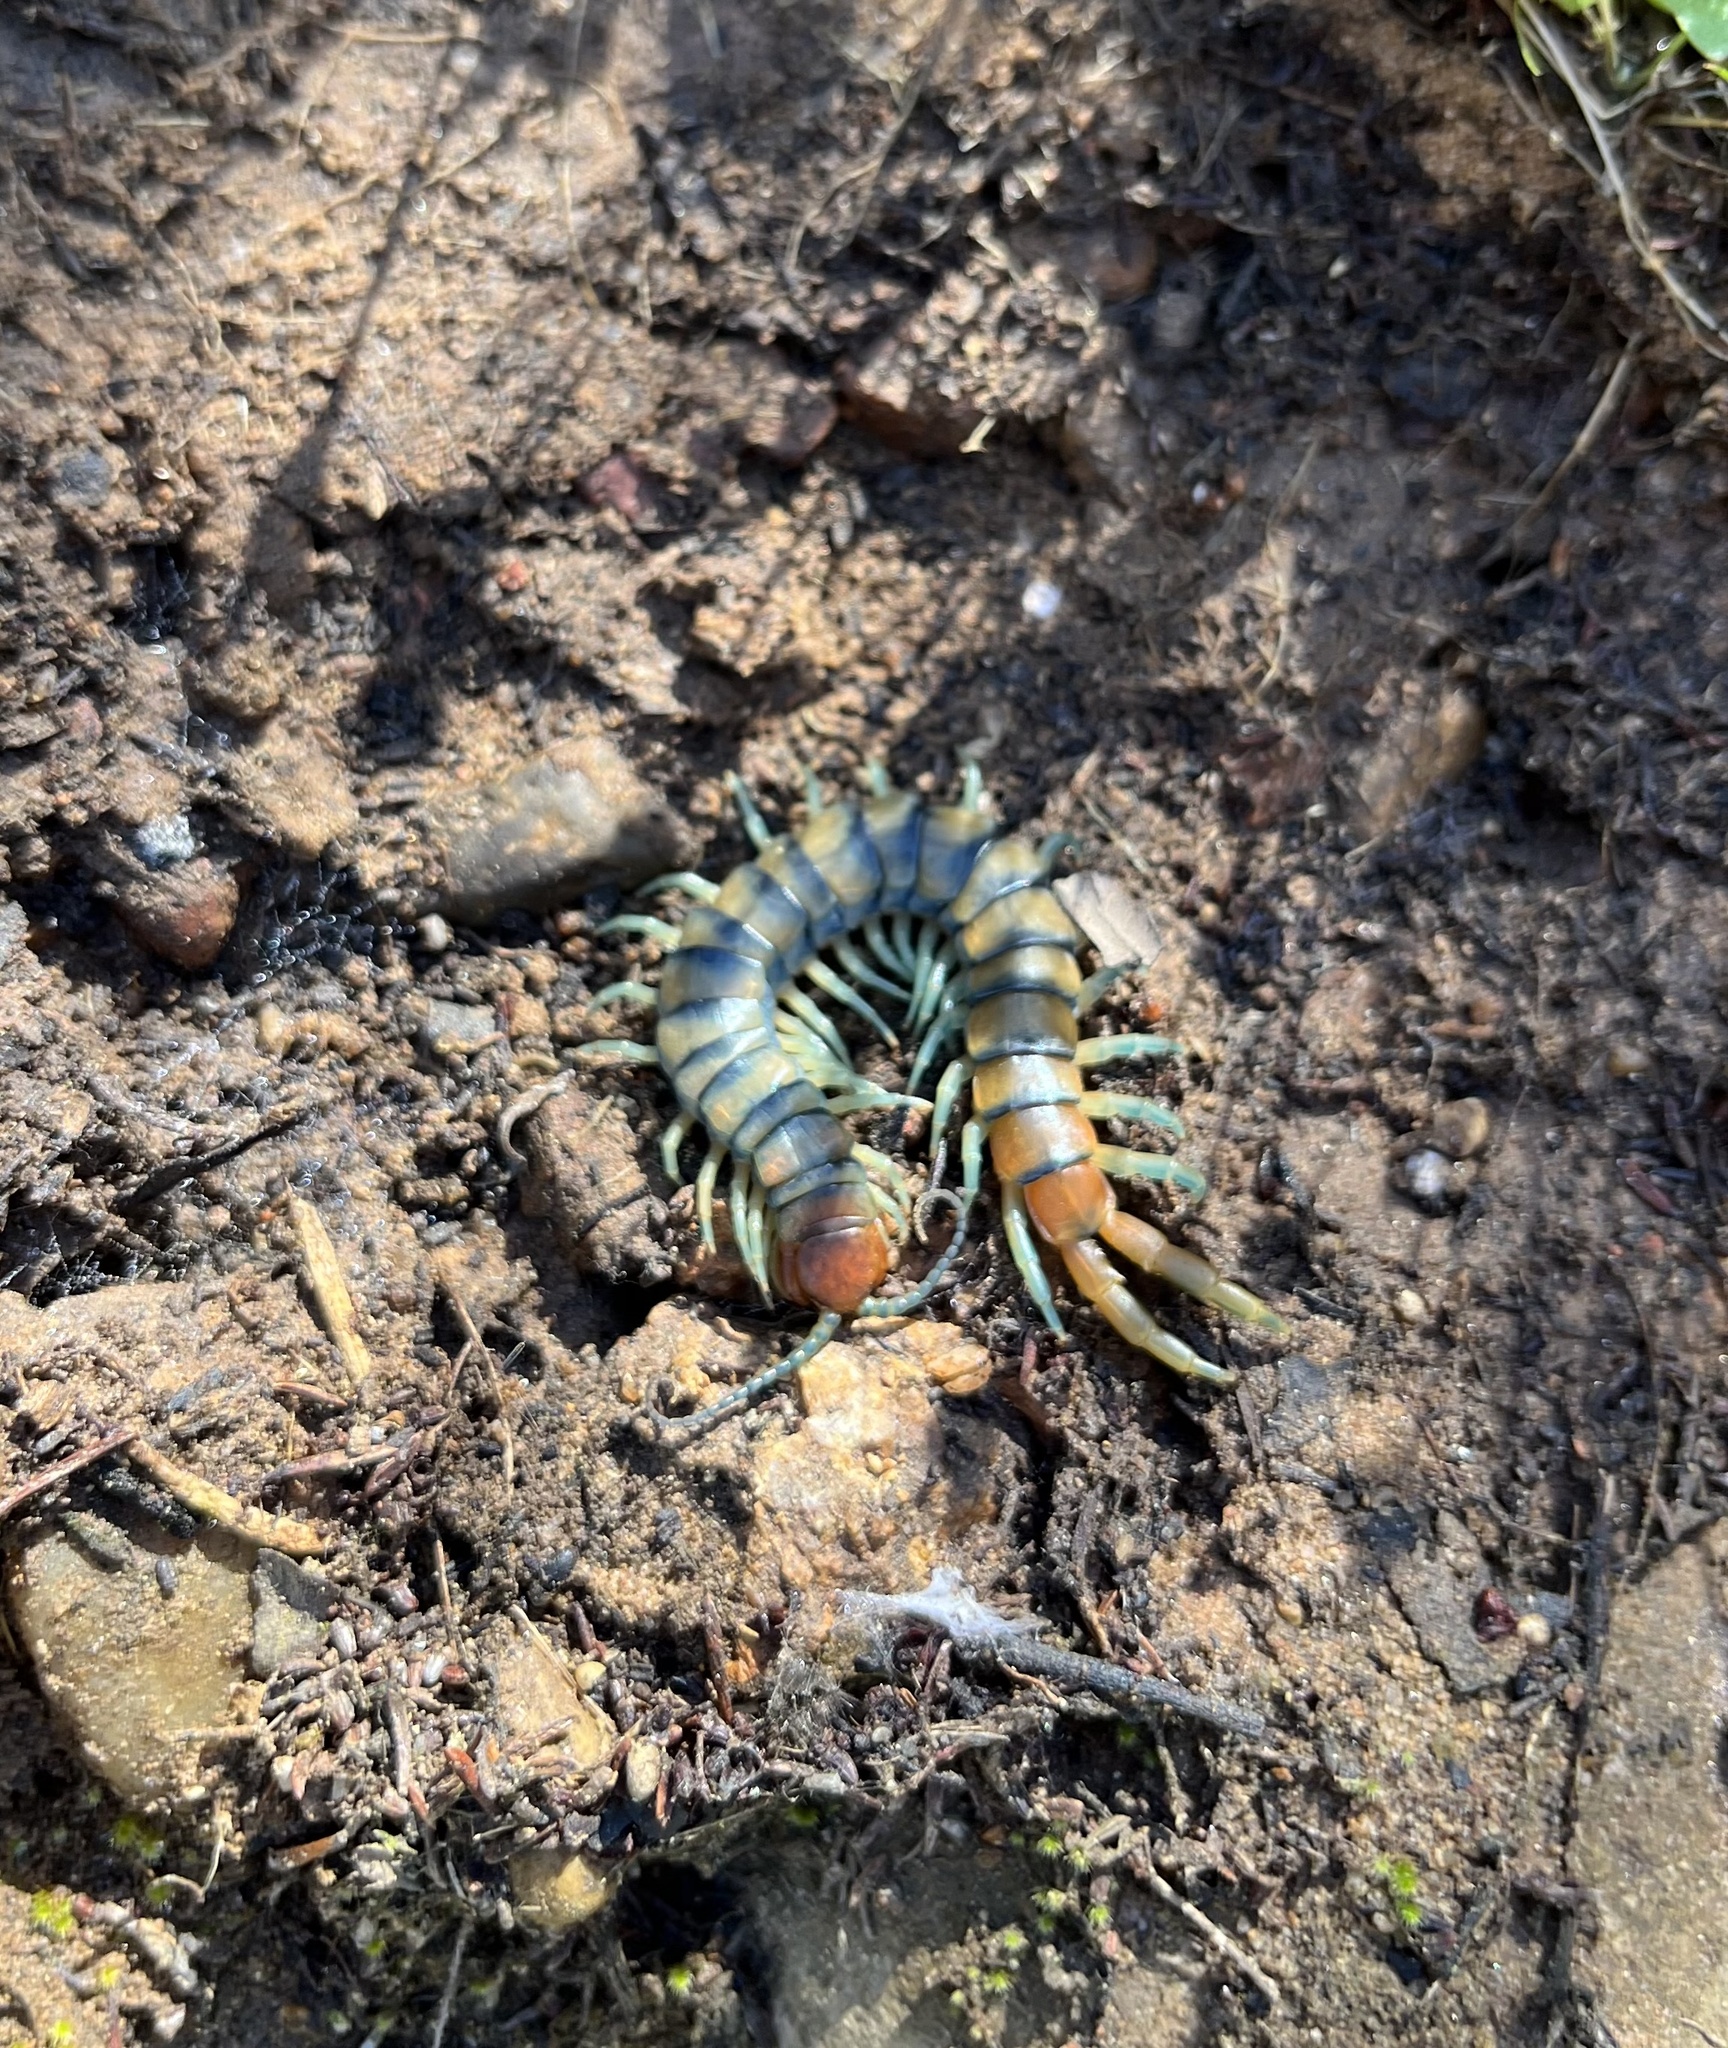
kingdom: Animalia
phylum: Arthropoda
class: Chilopoda
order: Scolopendromorpha
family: Scolopendridae
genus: Scolopendra
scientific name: Scolopendra polymorpha
